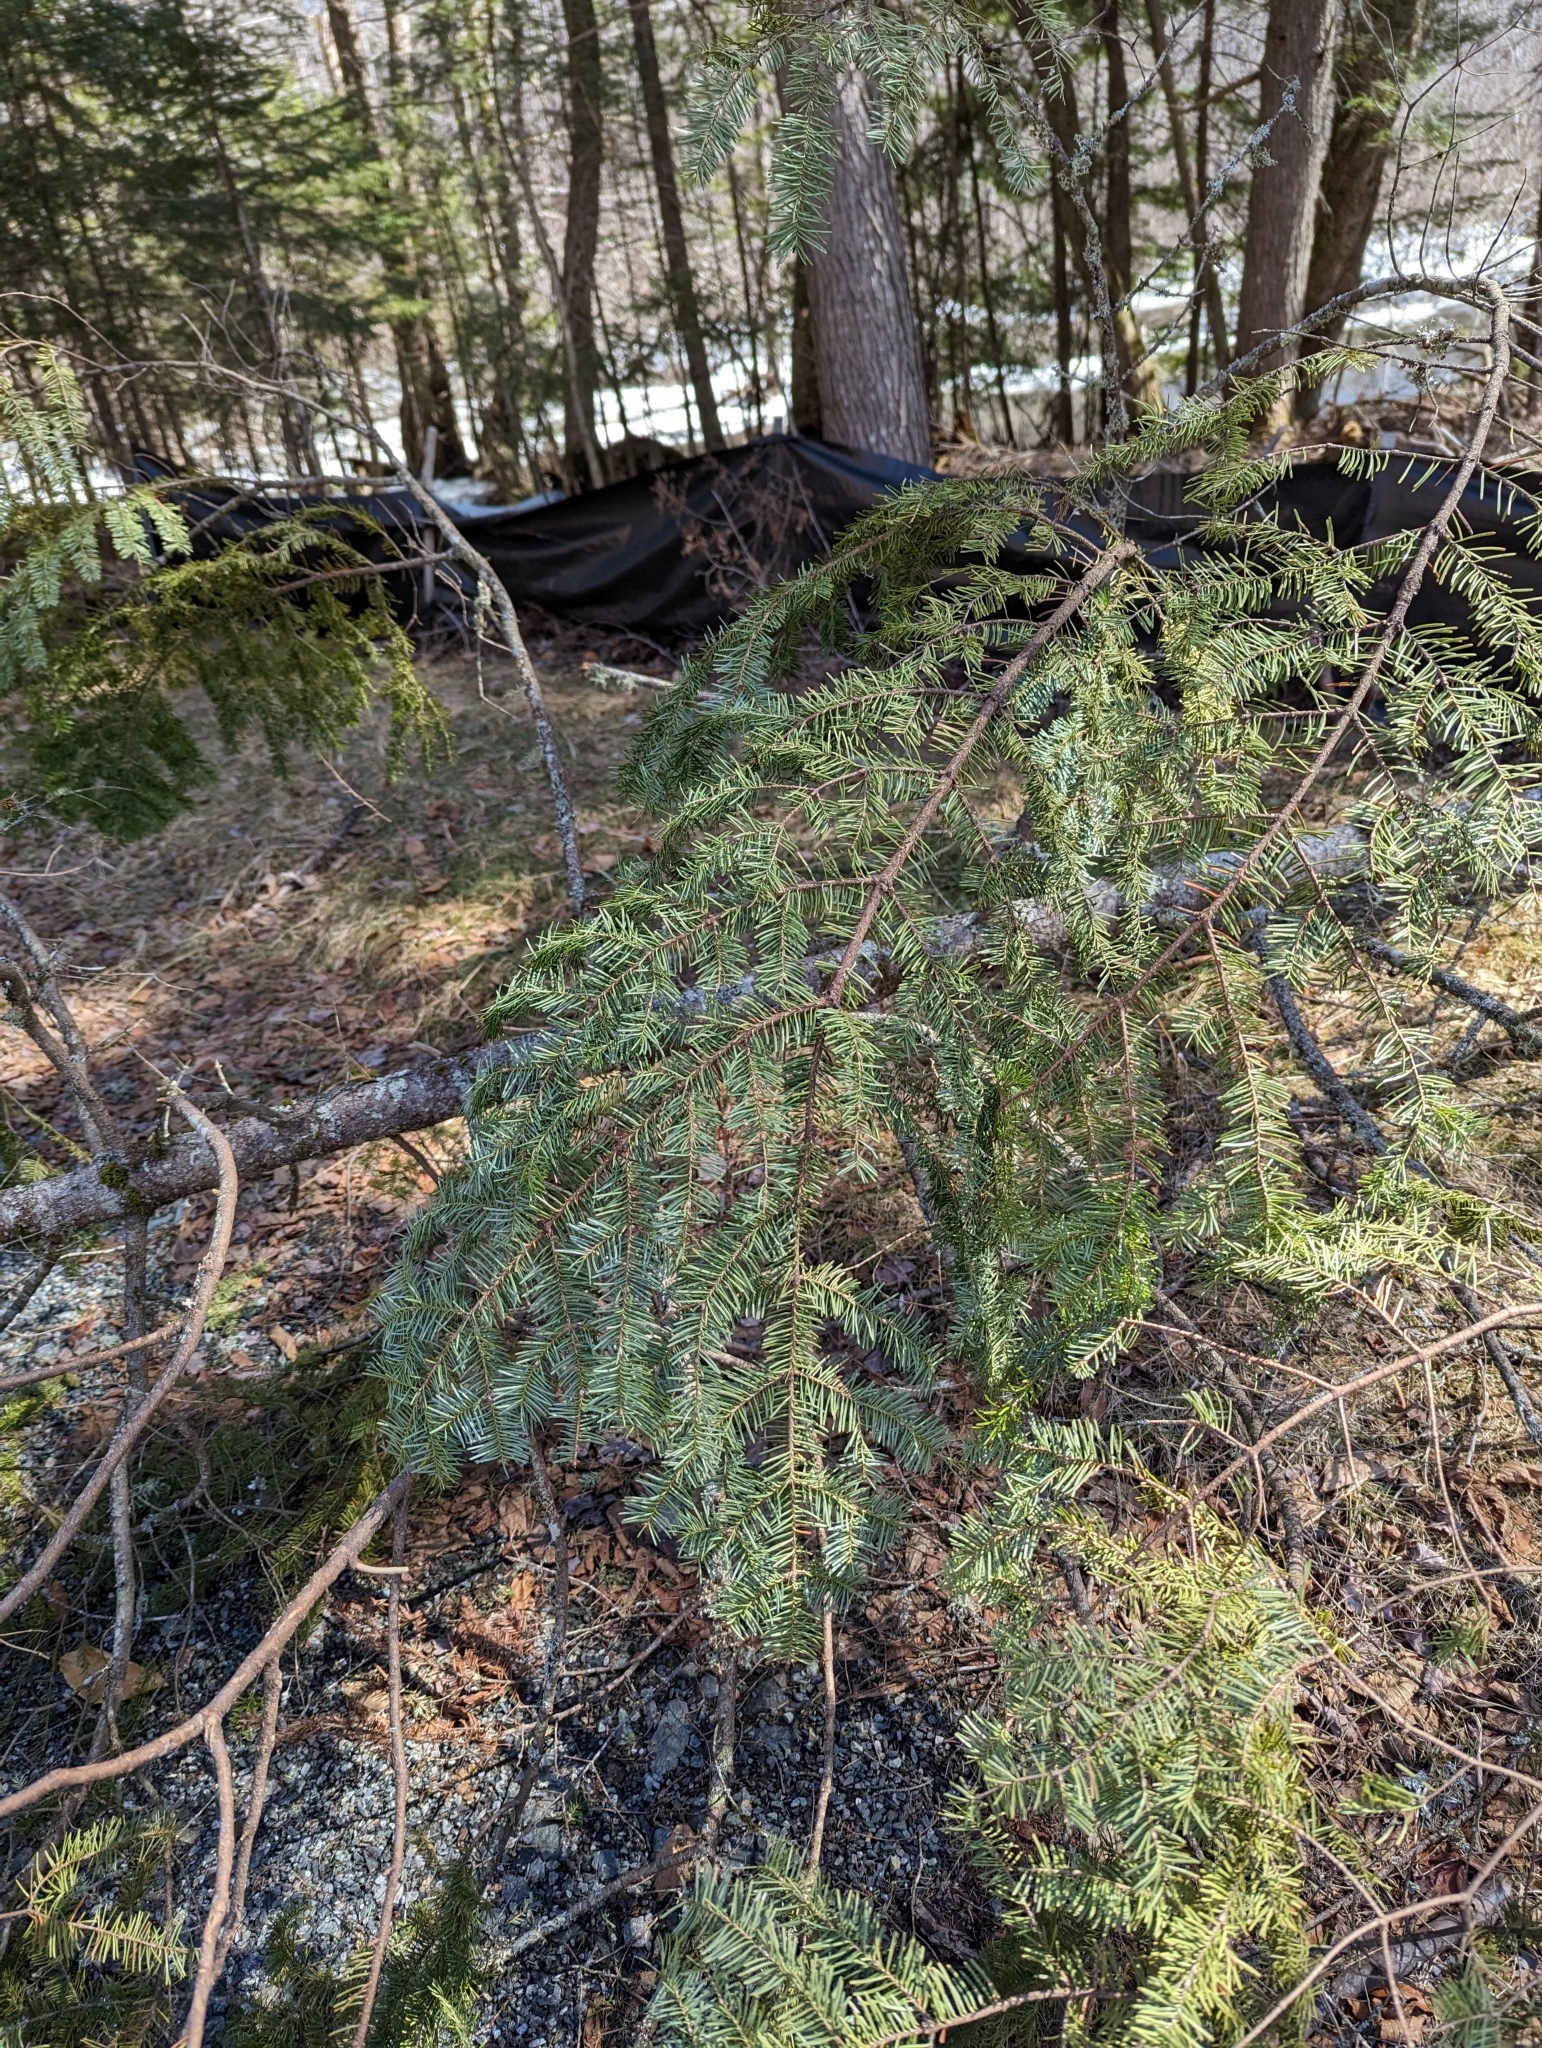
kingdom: Plantae
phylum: Tracheophyta
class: Pinopsida
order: Pinales
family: Pinaceae
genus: Abies
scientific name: Abies balsamea
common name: Balsam fir
